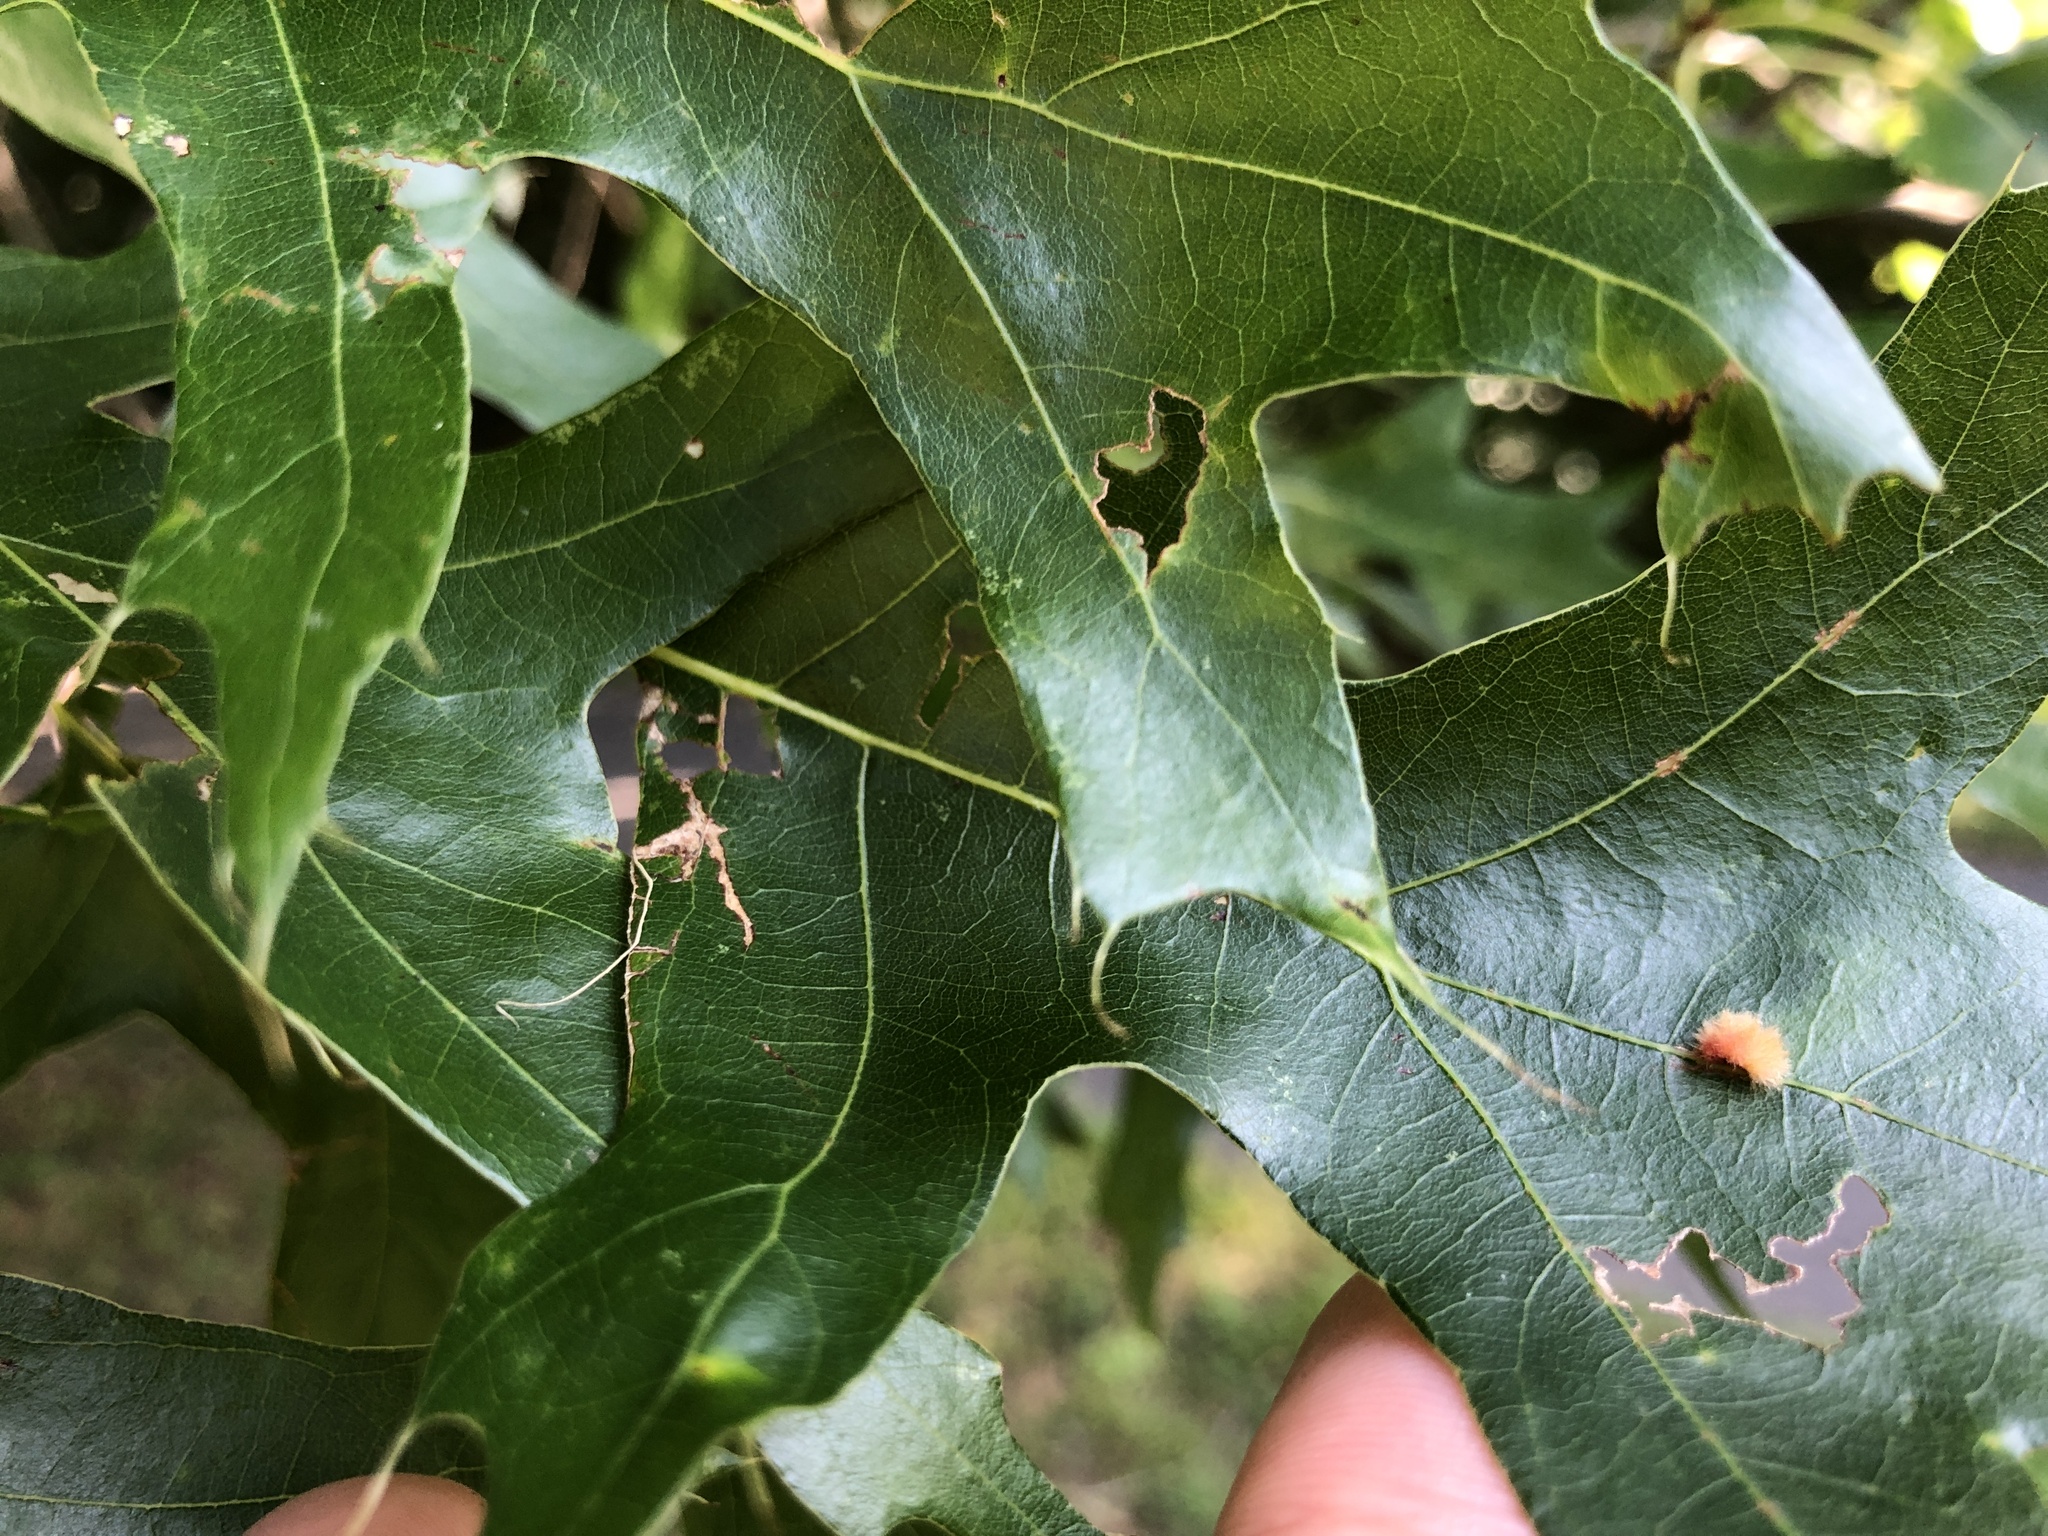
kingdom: Animalia
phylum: Arthropoda
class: Insecta
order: Hymenoptera
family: Cynipidae
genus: Callirhytis
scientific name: Callirhytis
